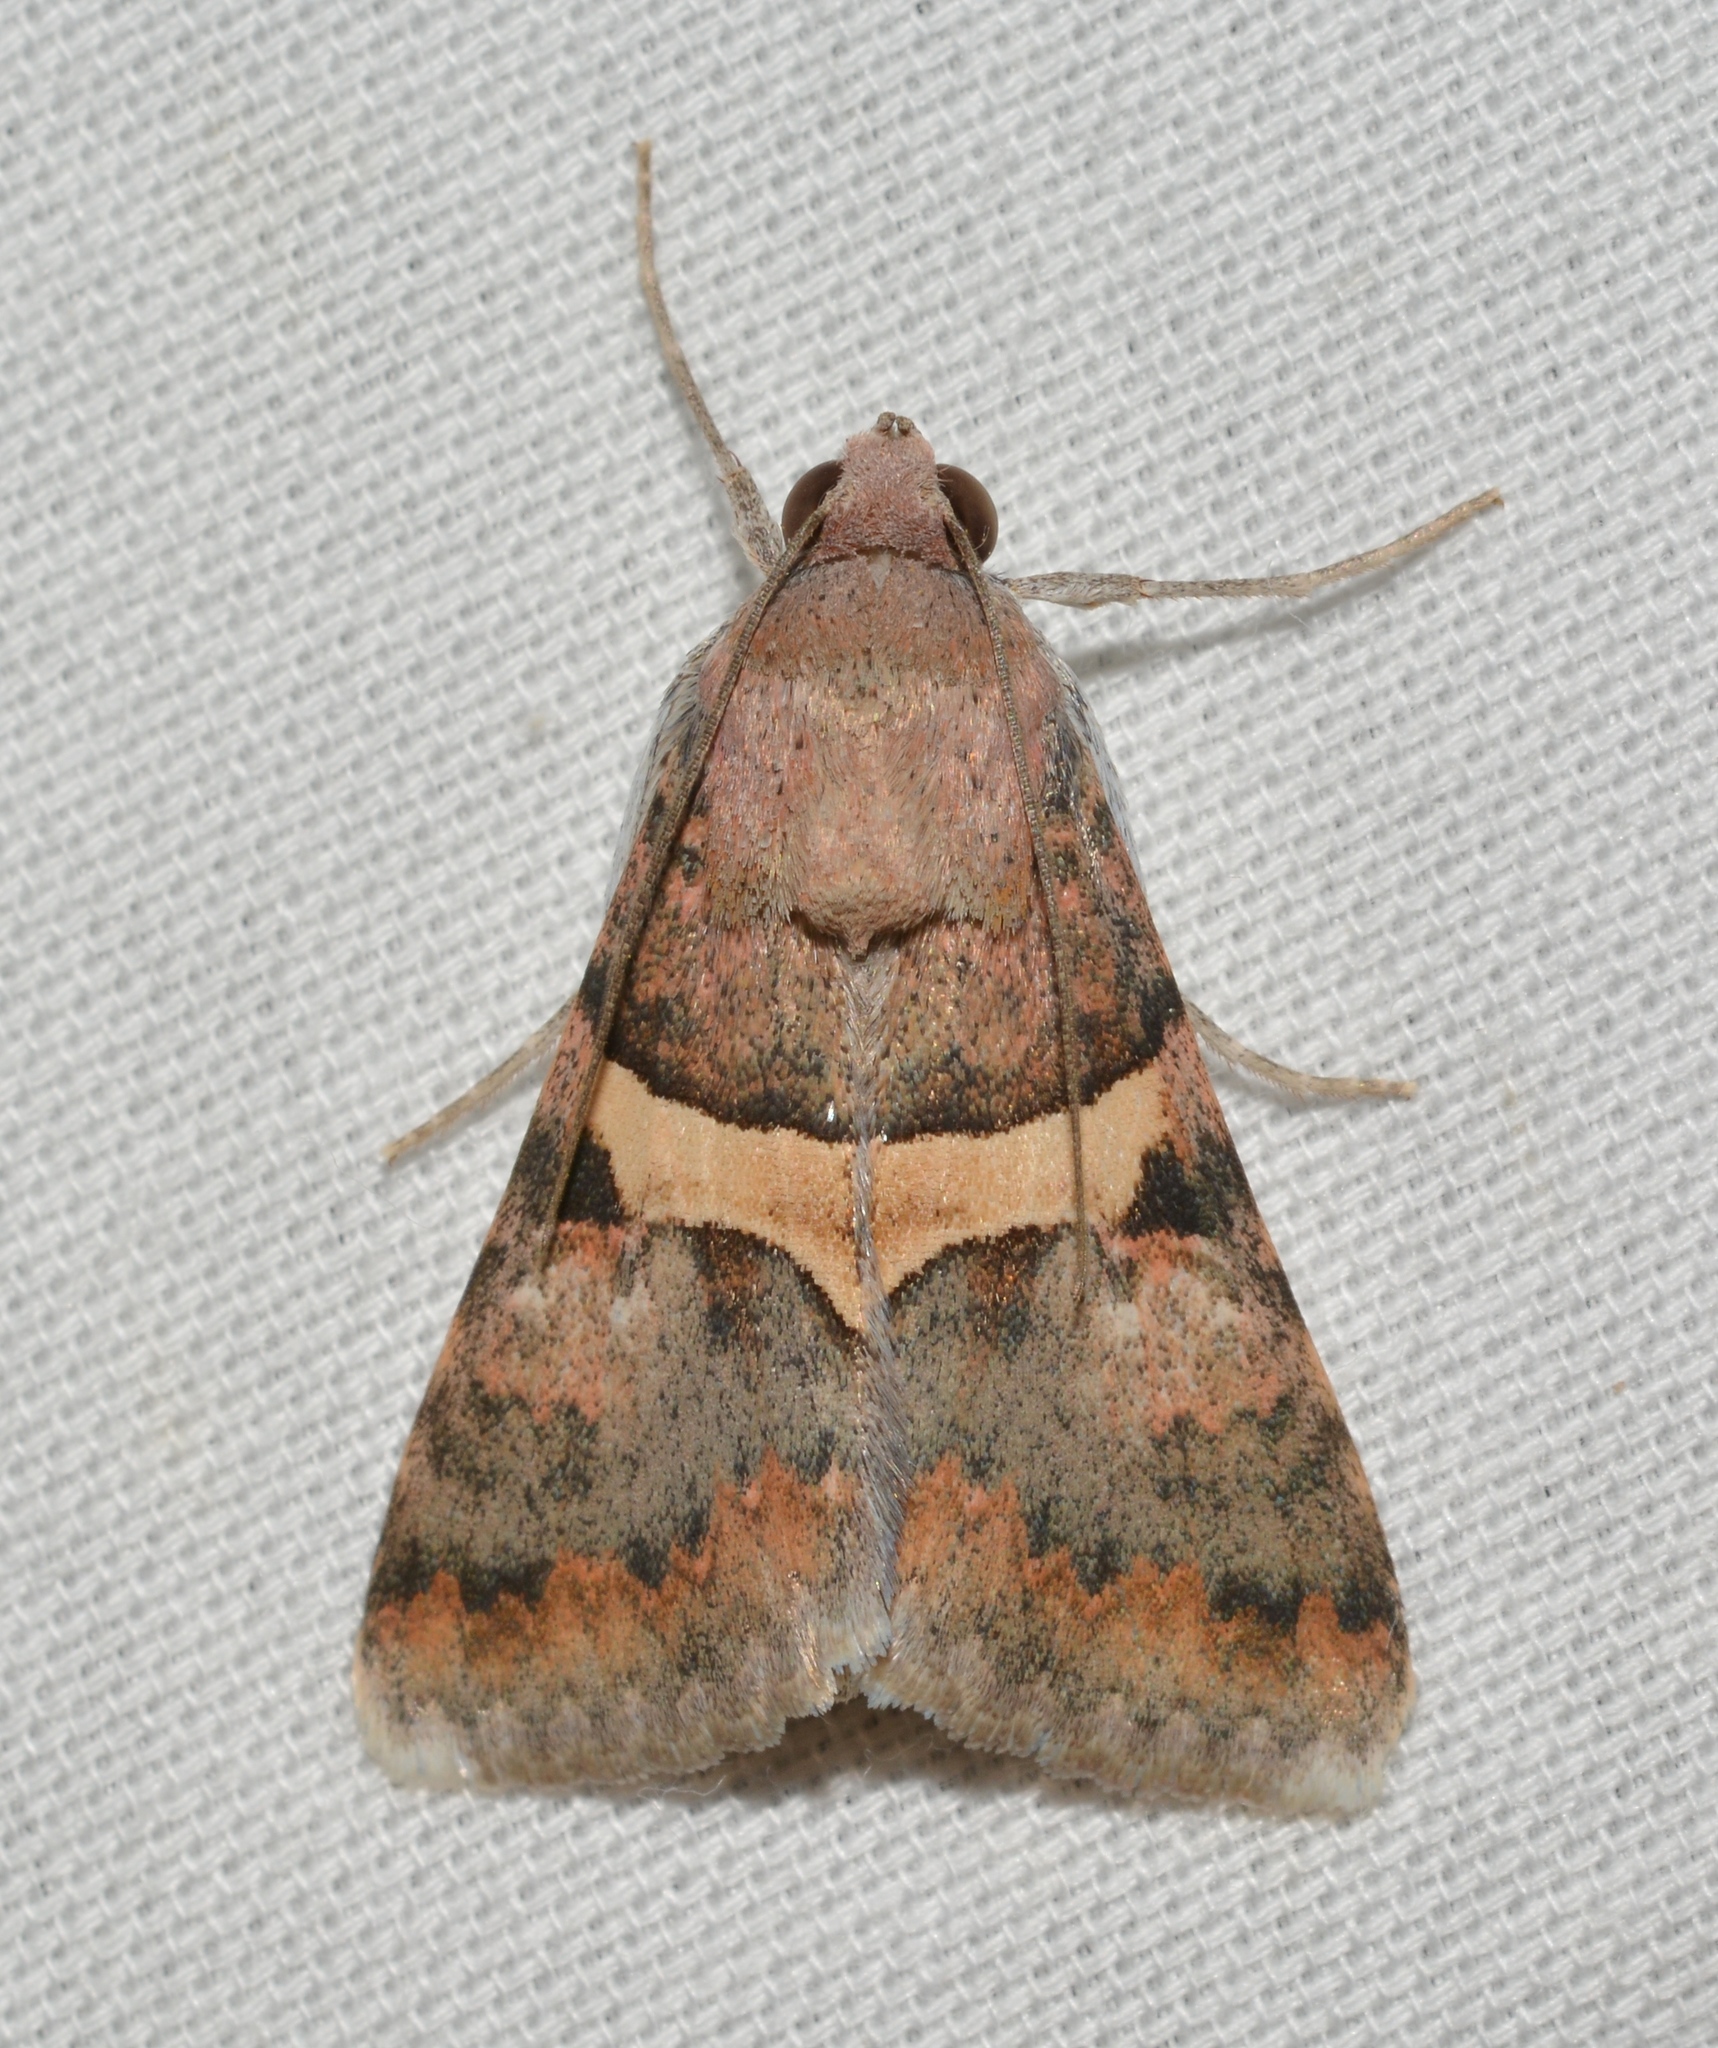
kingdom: Animalia
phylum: Arthropoda
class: Insecta
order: Lepidoptera
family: Erebidae
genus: Melipotis
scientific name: Melipotis jucunda
